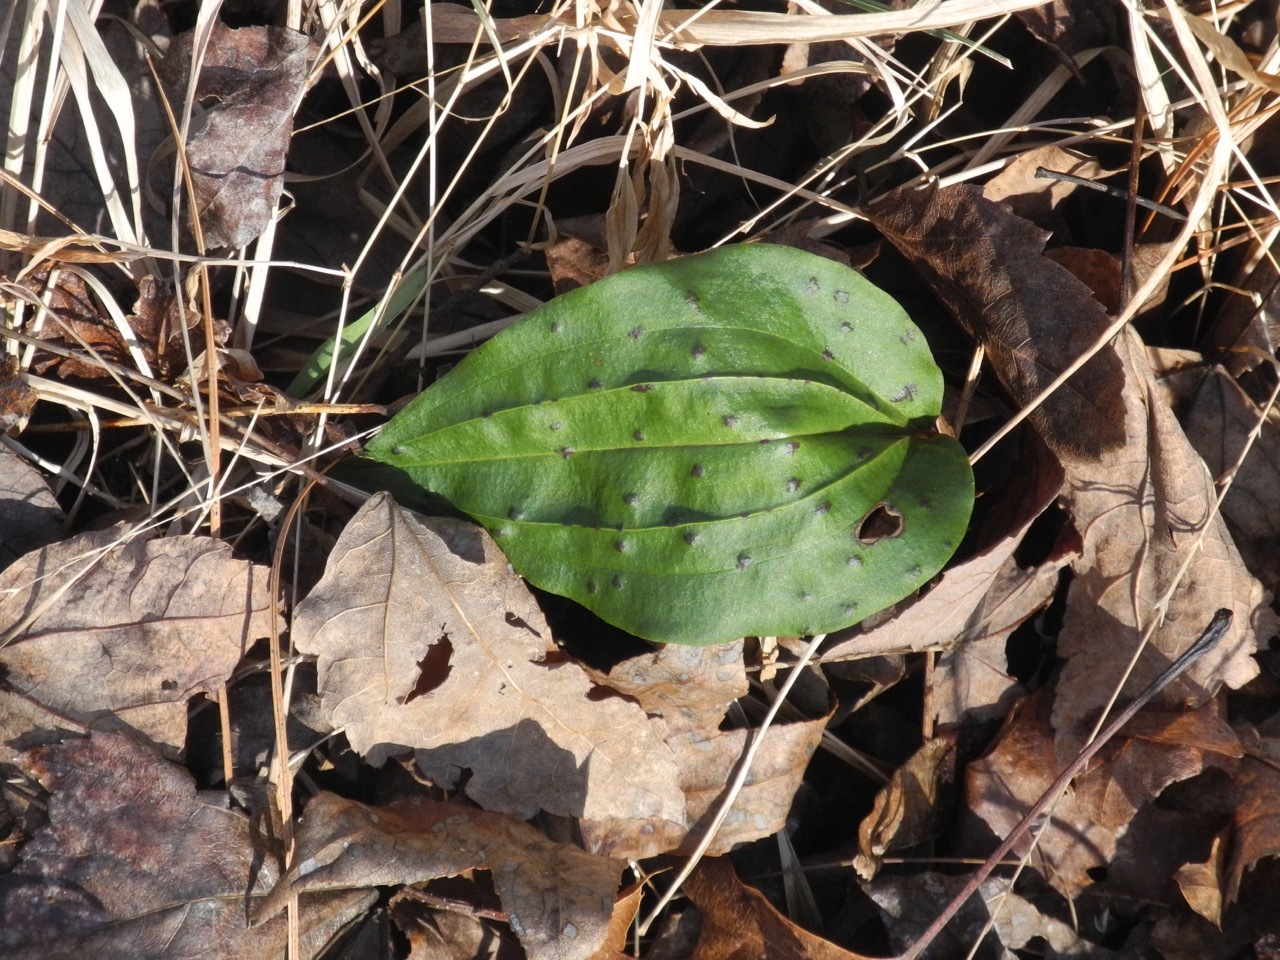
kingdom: Plantae
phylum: Tracheophyta
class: Liliopsida
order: Asparagales
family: Orchidaceae
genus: Tipularia
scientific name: Tipularia discolor
